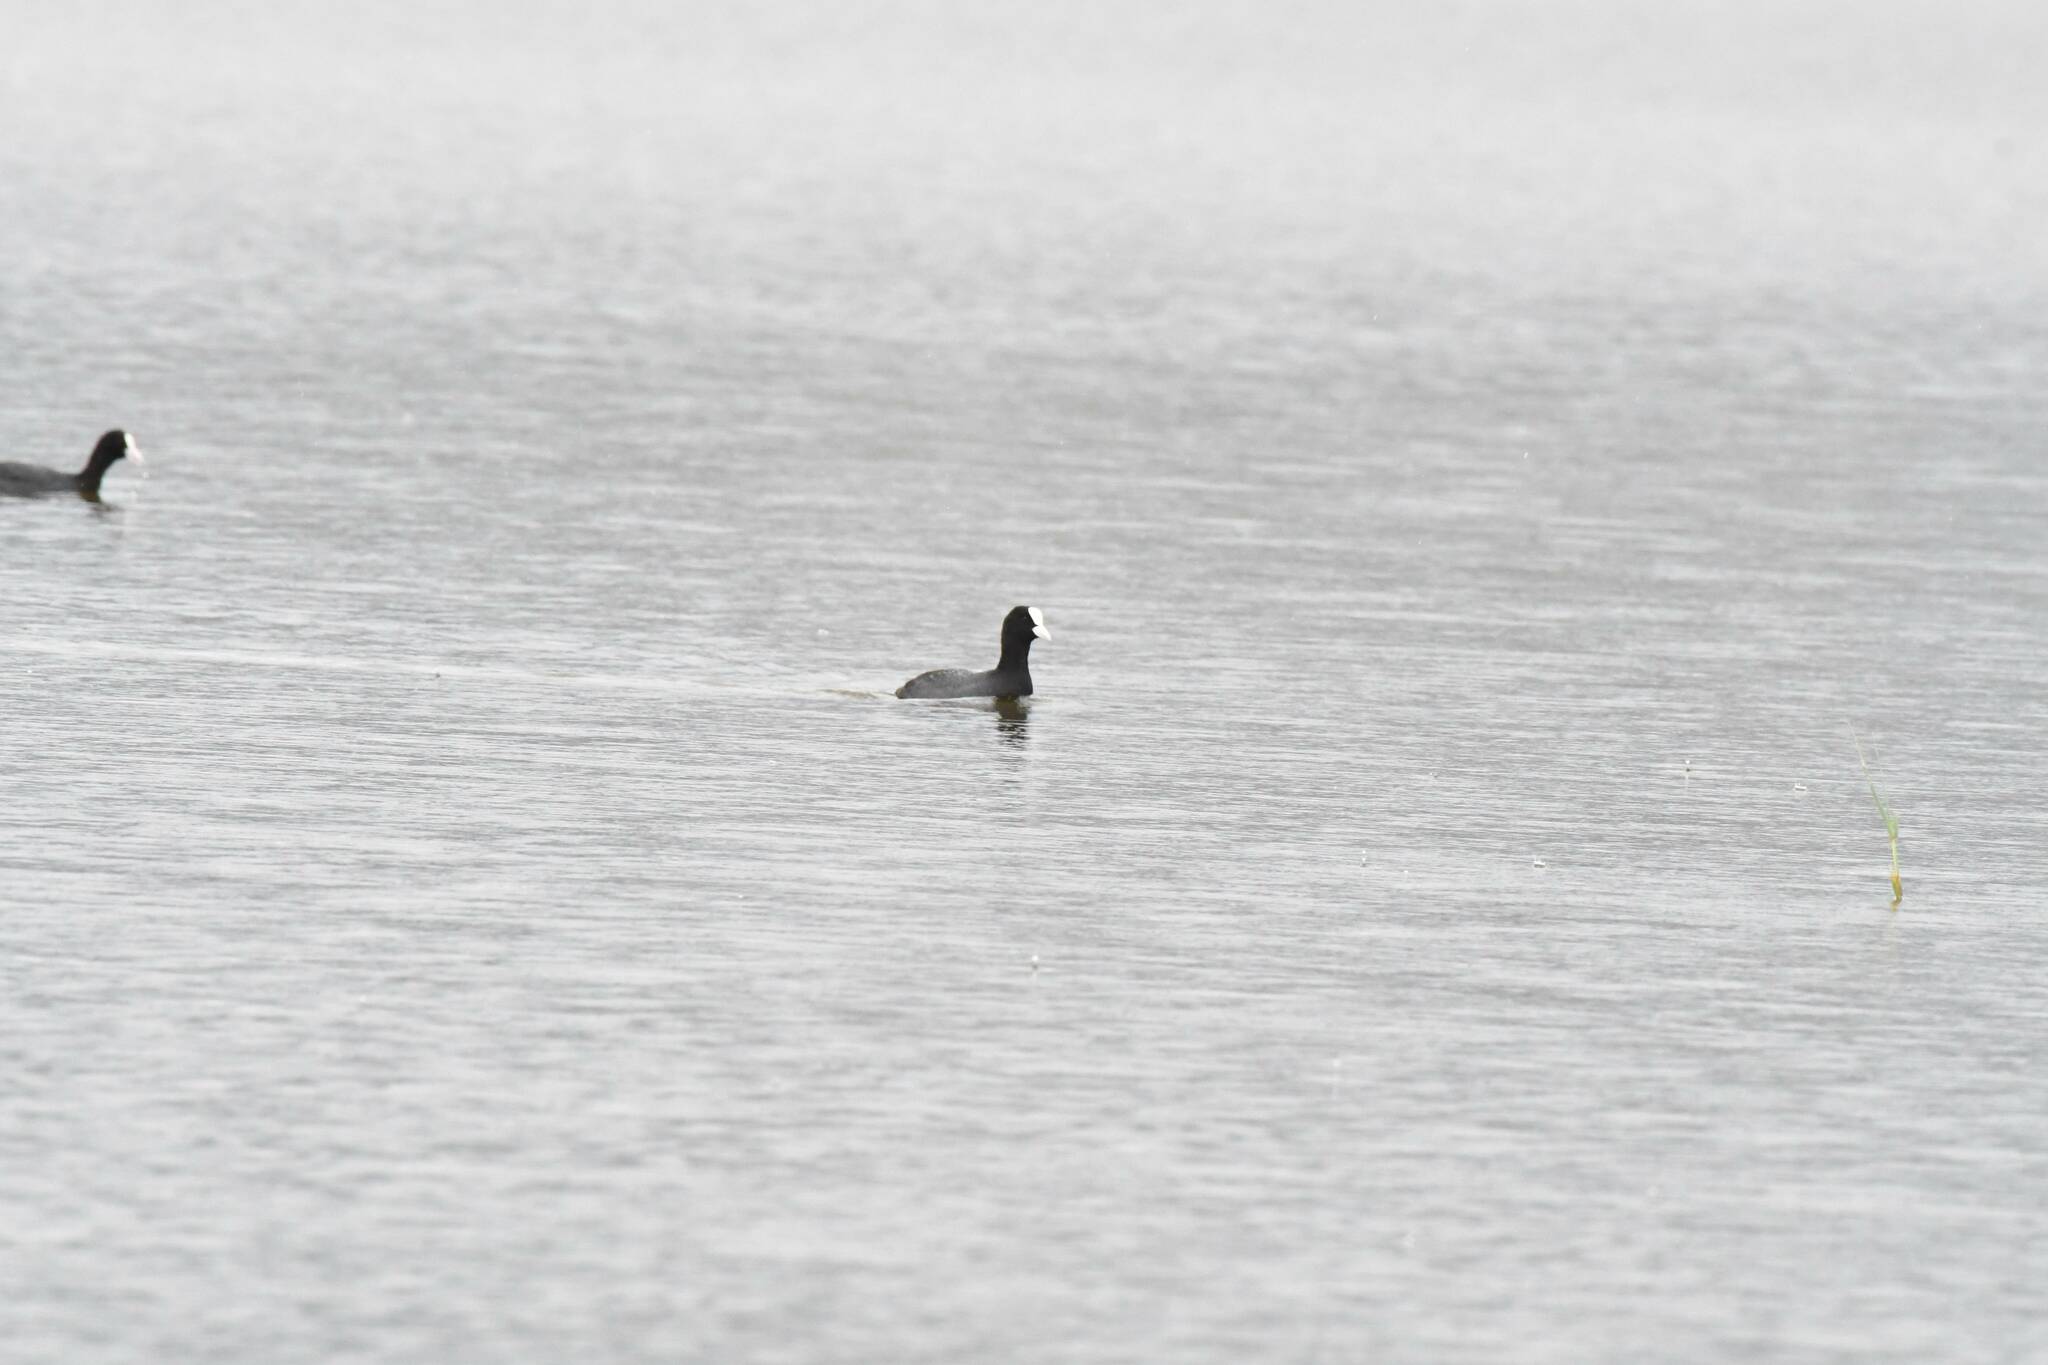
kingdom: Animalia
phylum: Chordata
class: Aves
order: Gruiformes
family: Rallidae
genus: Fulica
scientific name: Fulica atra
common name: Eurasian coot
